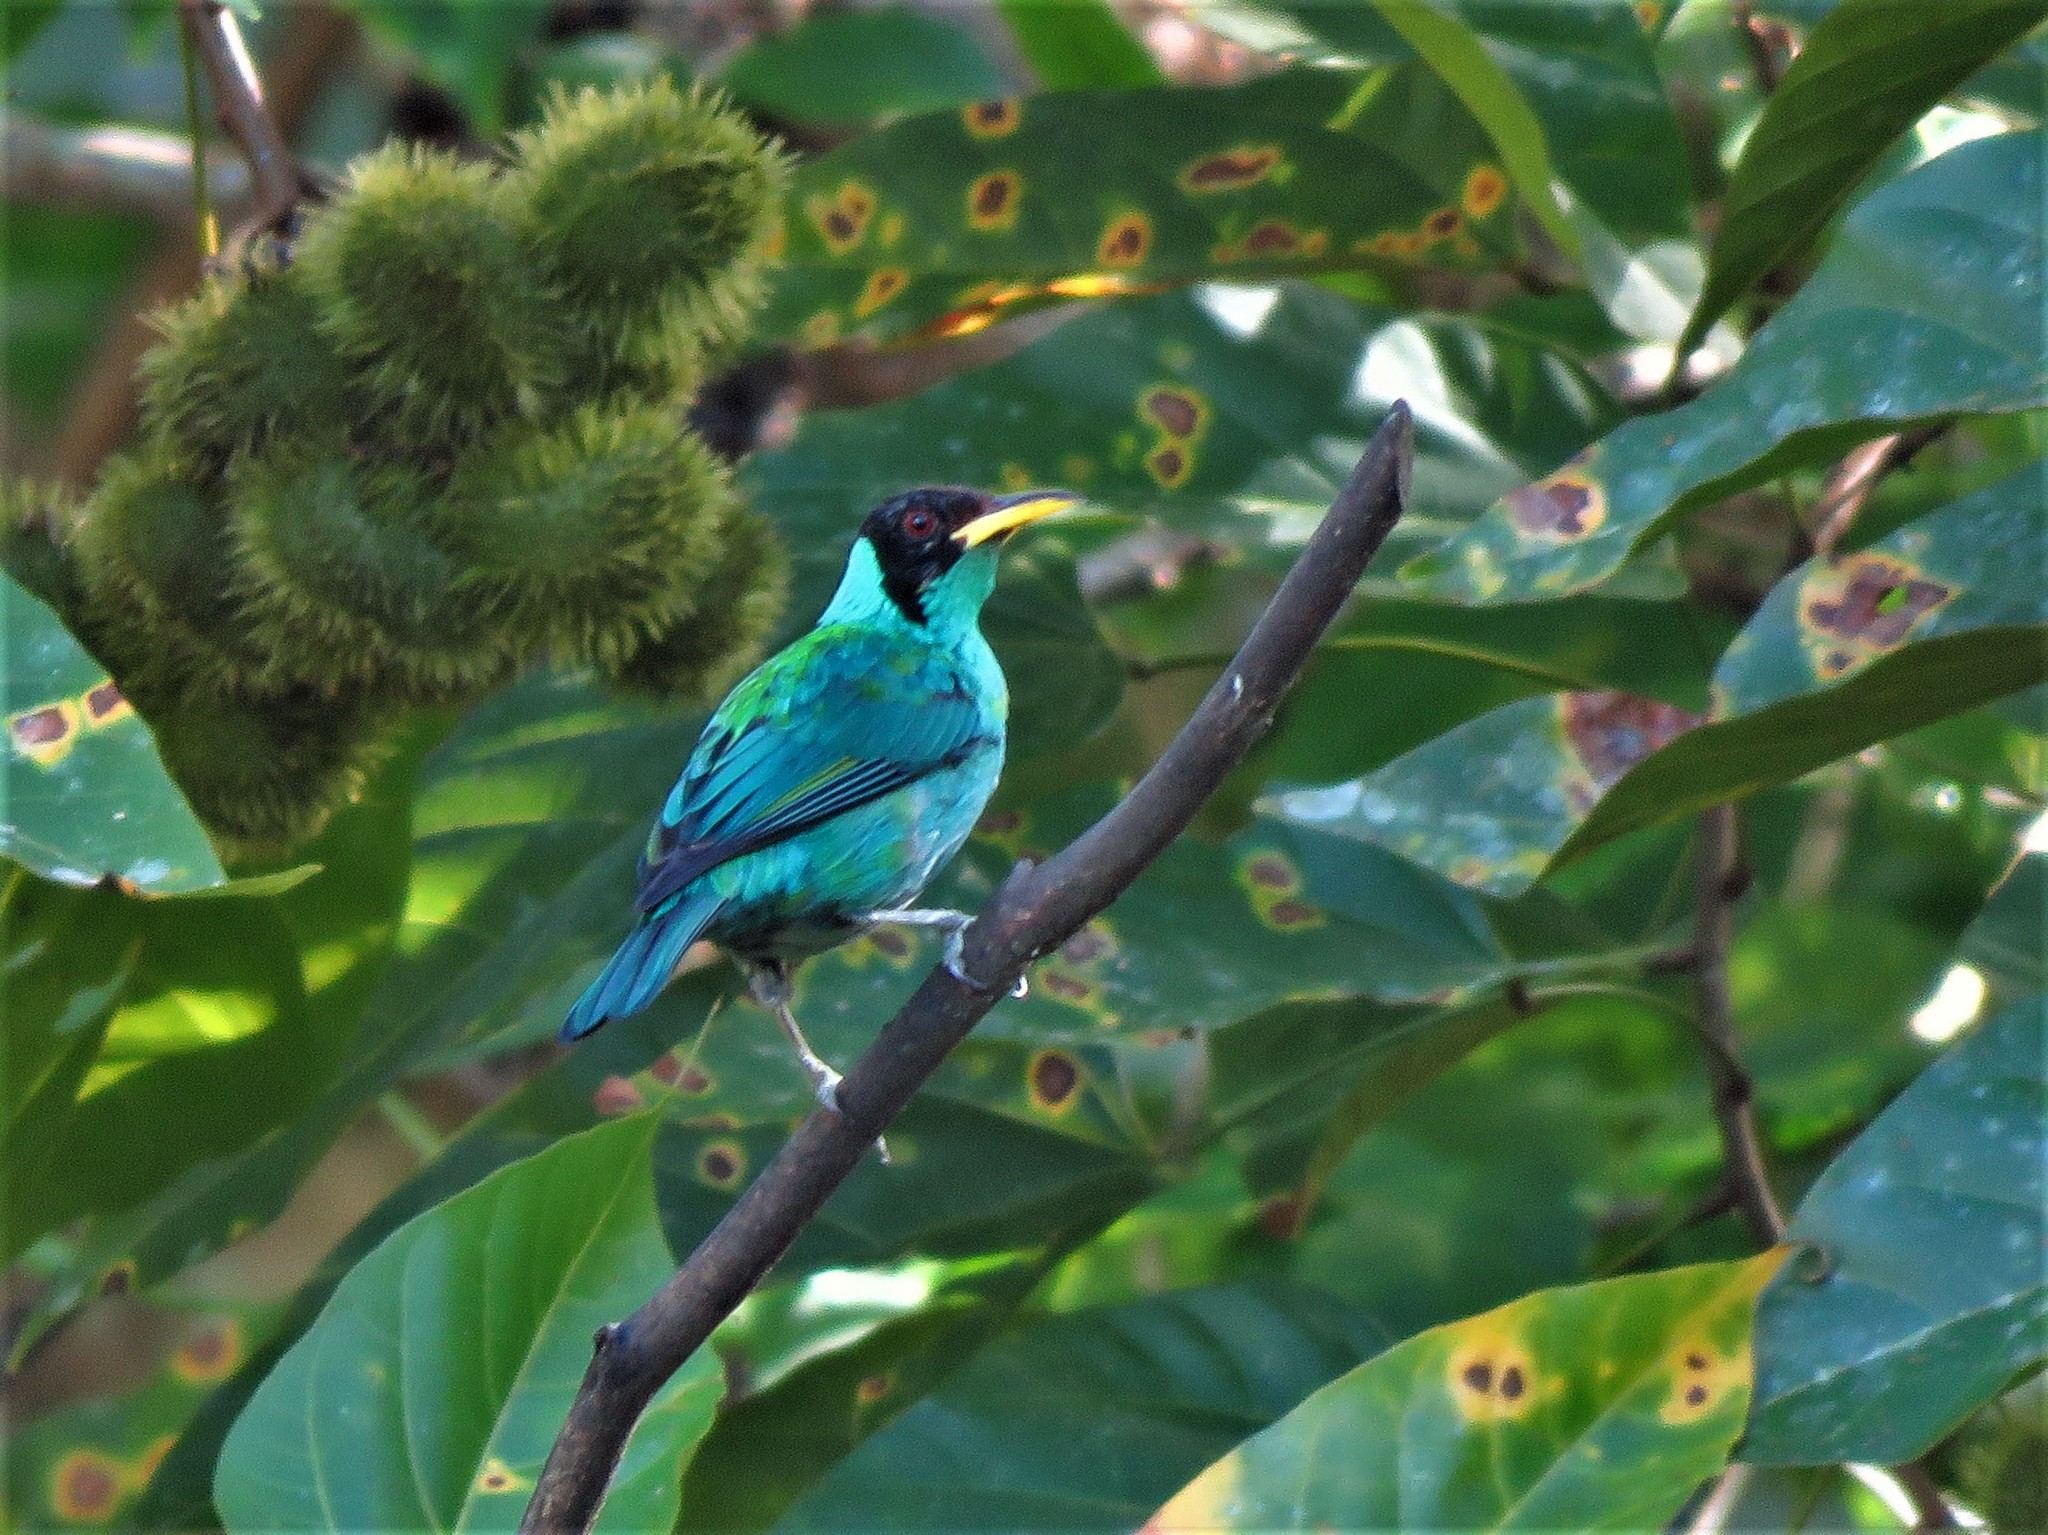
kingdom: Animalia
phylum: Chordata
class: Aves
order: Passeriformes
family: Thraupidae
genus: Chlorophanes
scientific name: Chlorophanes spiza
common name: Green honeycreeper
